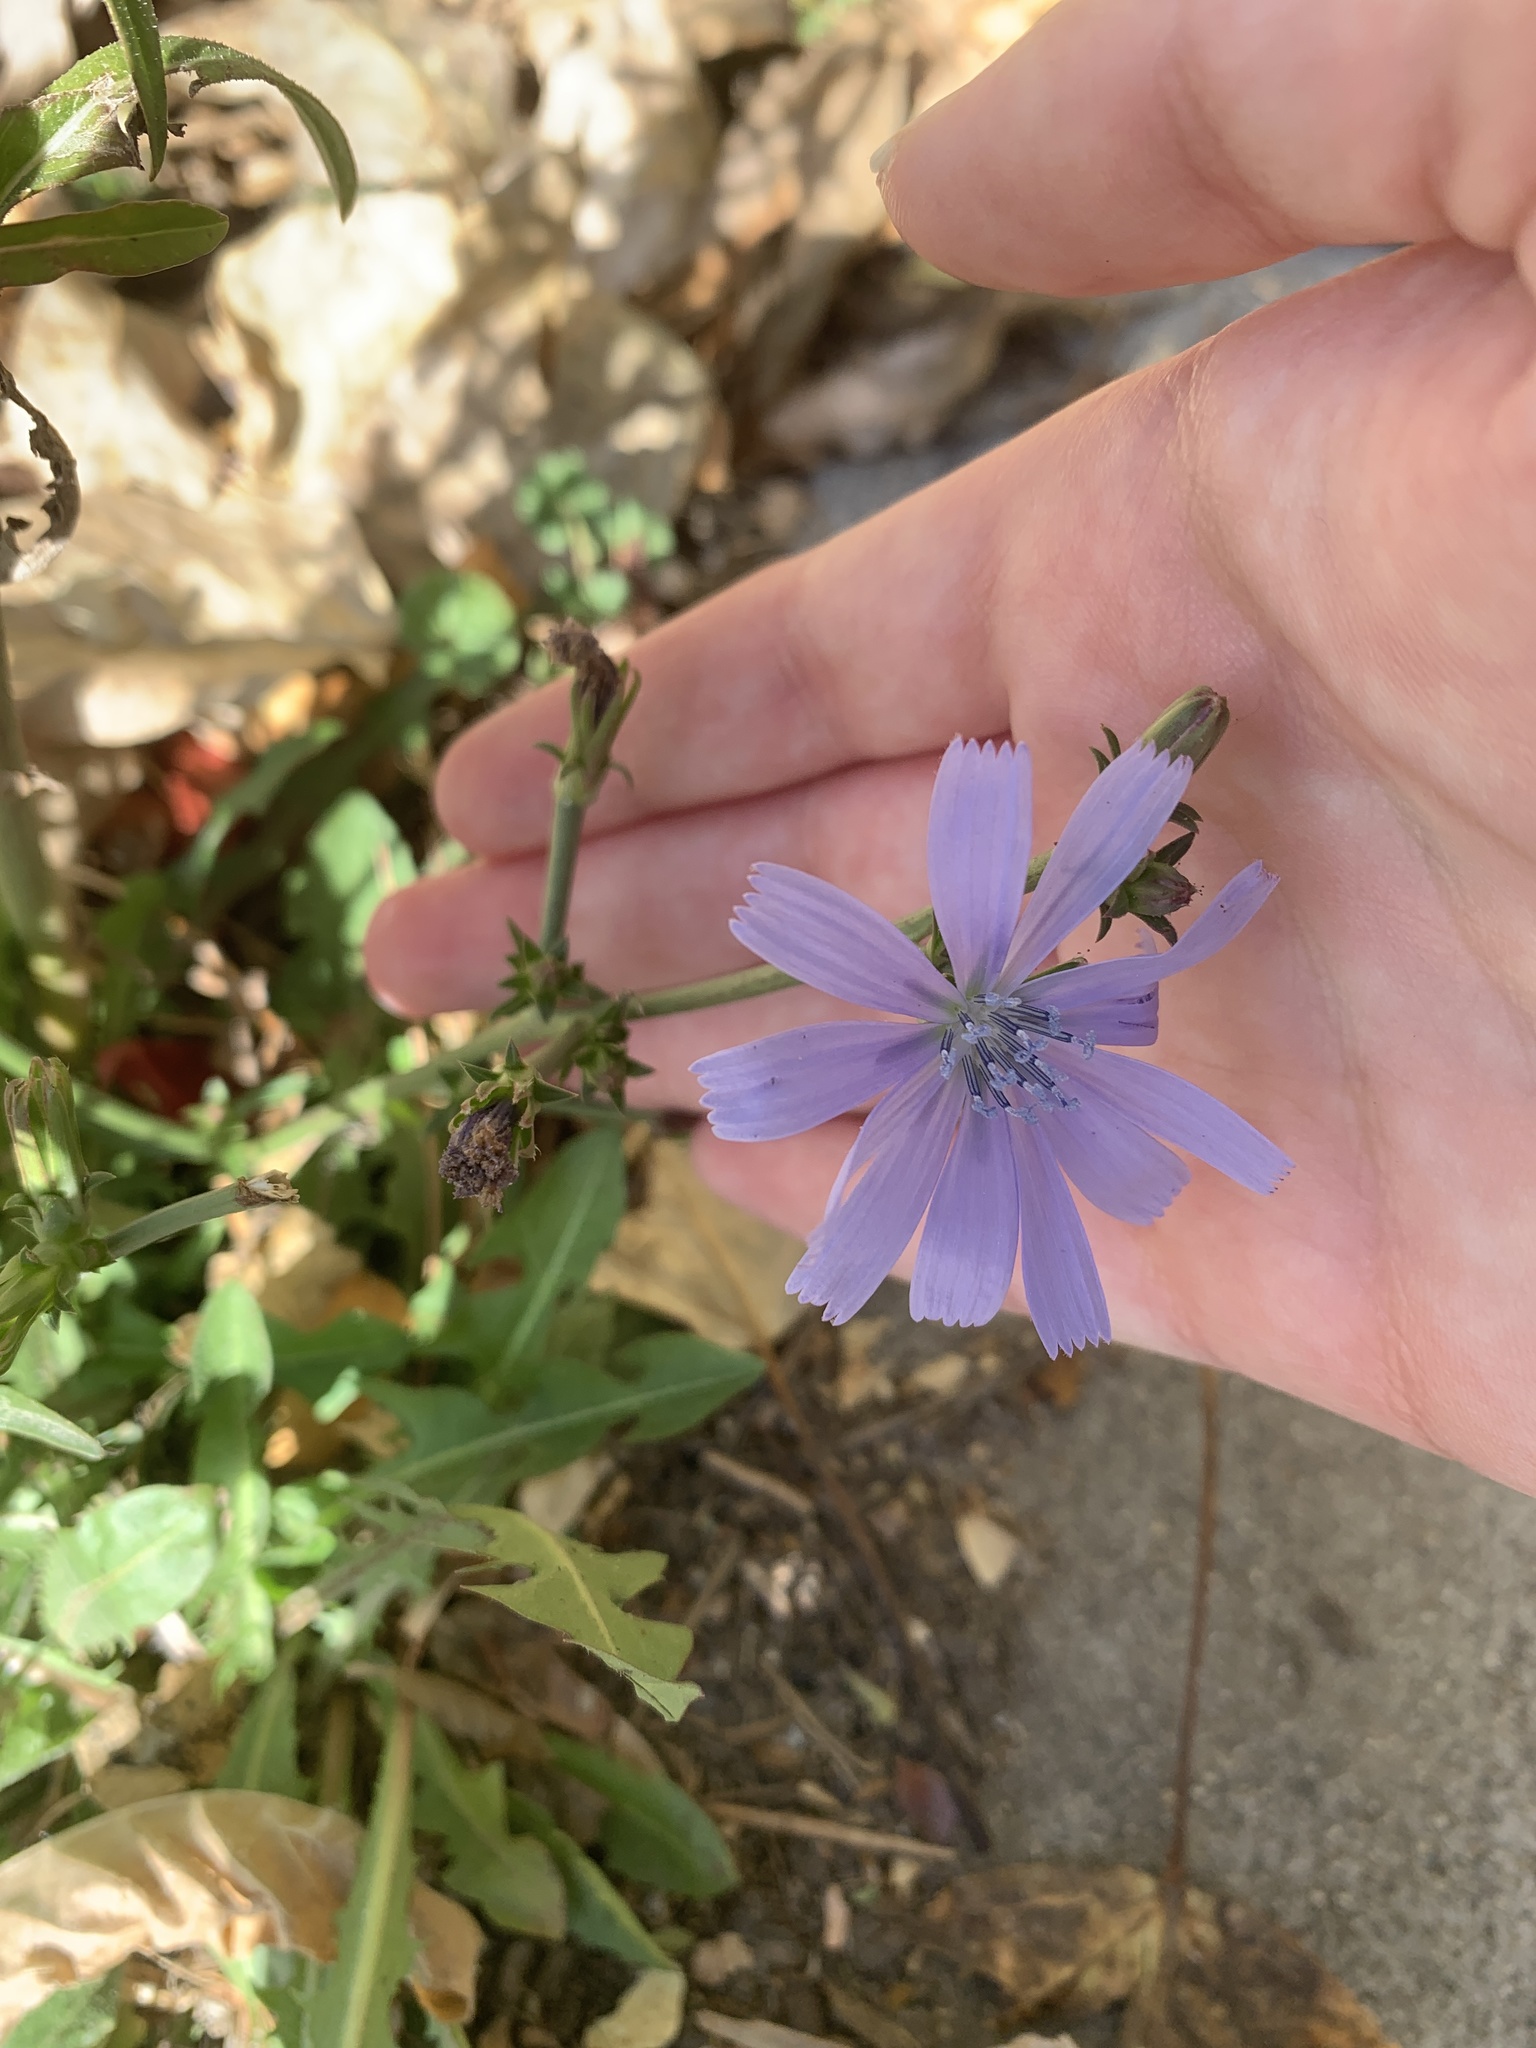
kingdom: Plantae
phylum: Tracheophyta
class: Magnoliopsida
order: Asterales
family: Asteraceae
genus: Cichorium
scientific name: Cichorium intybus
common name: Chicory
